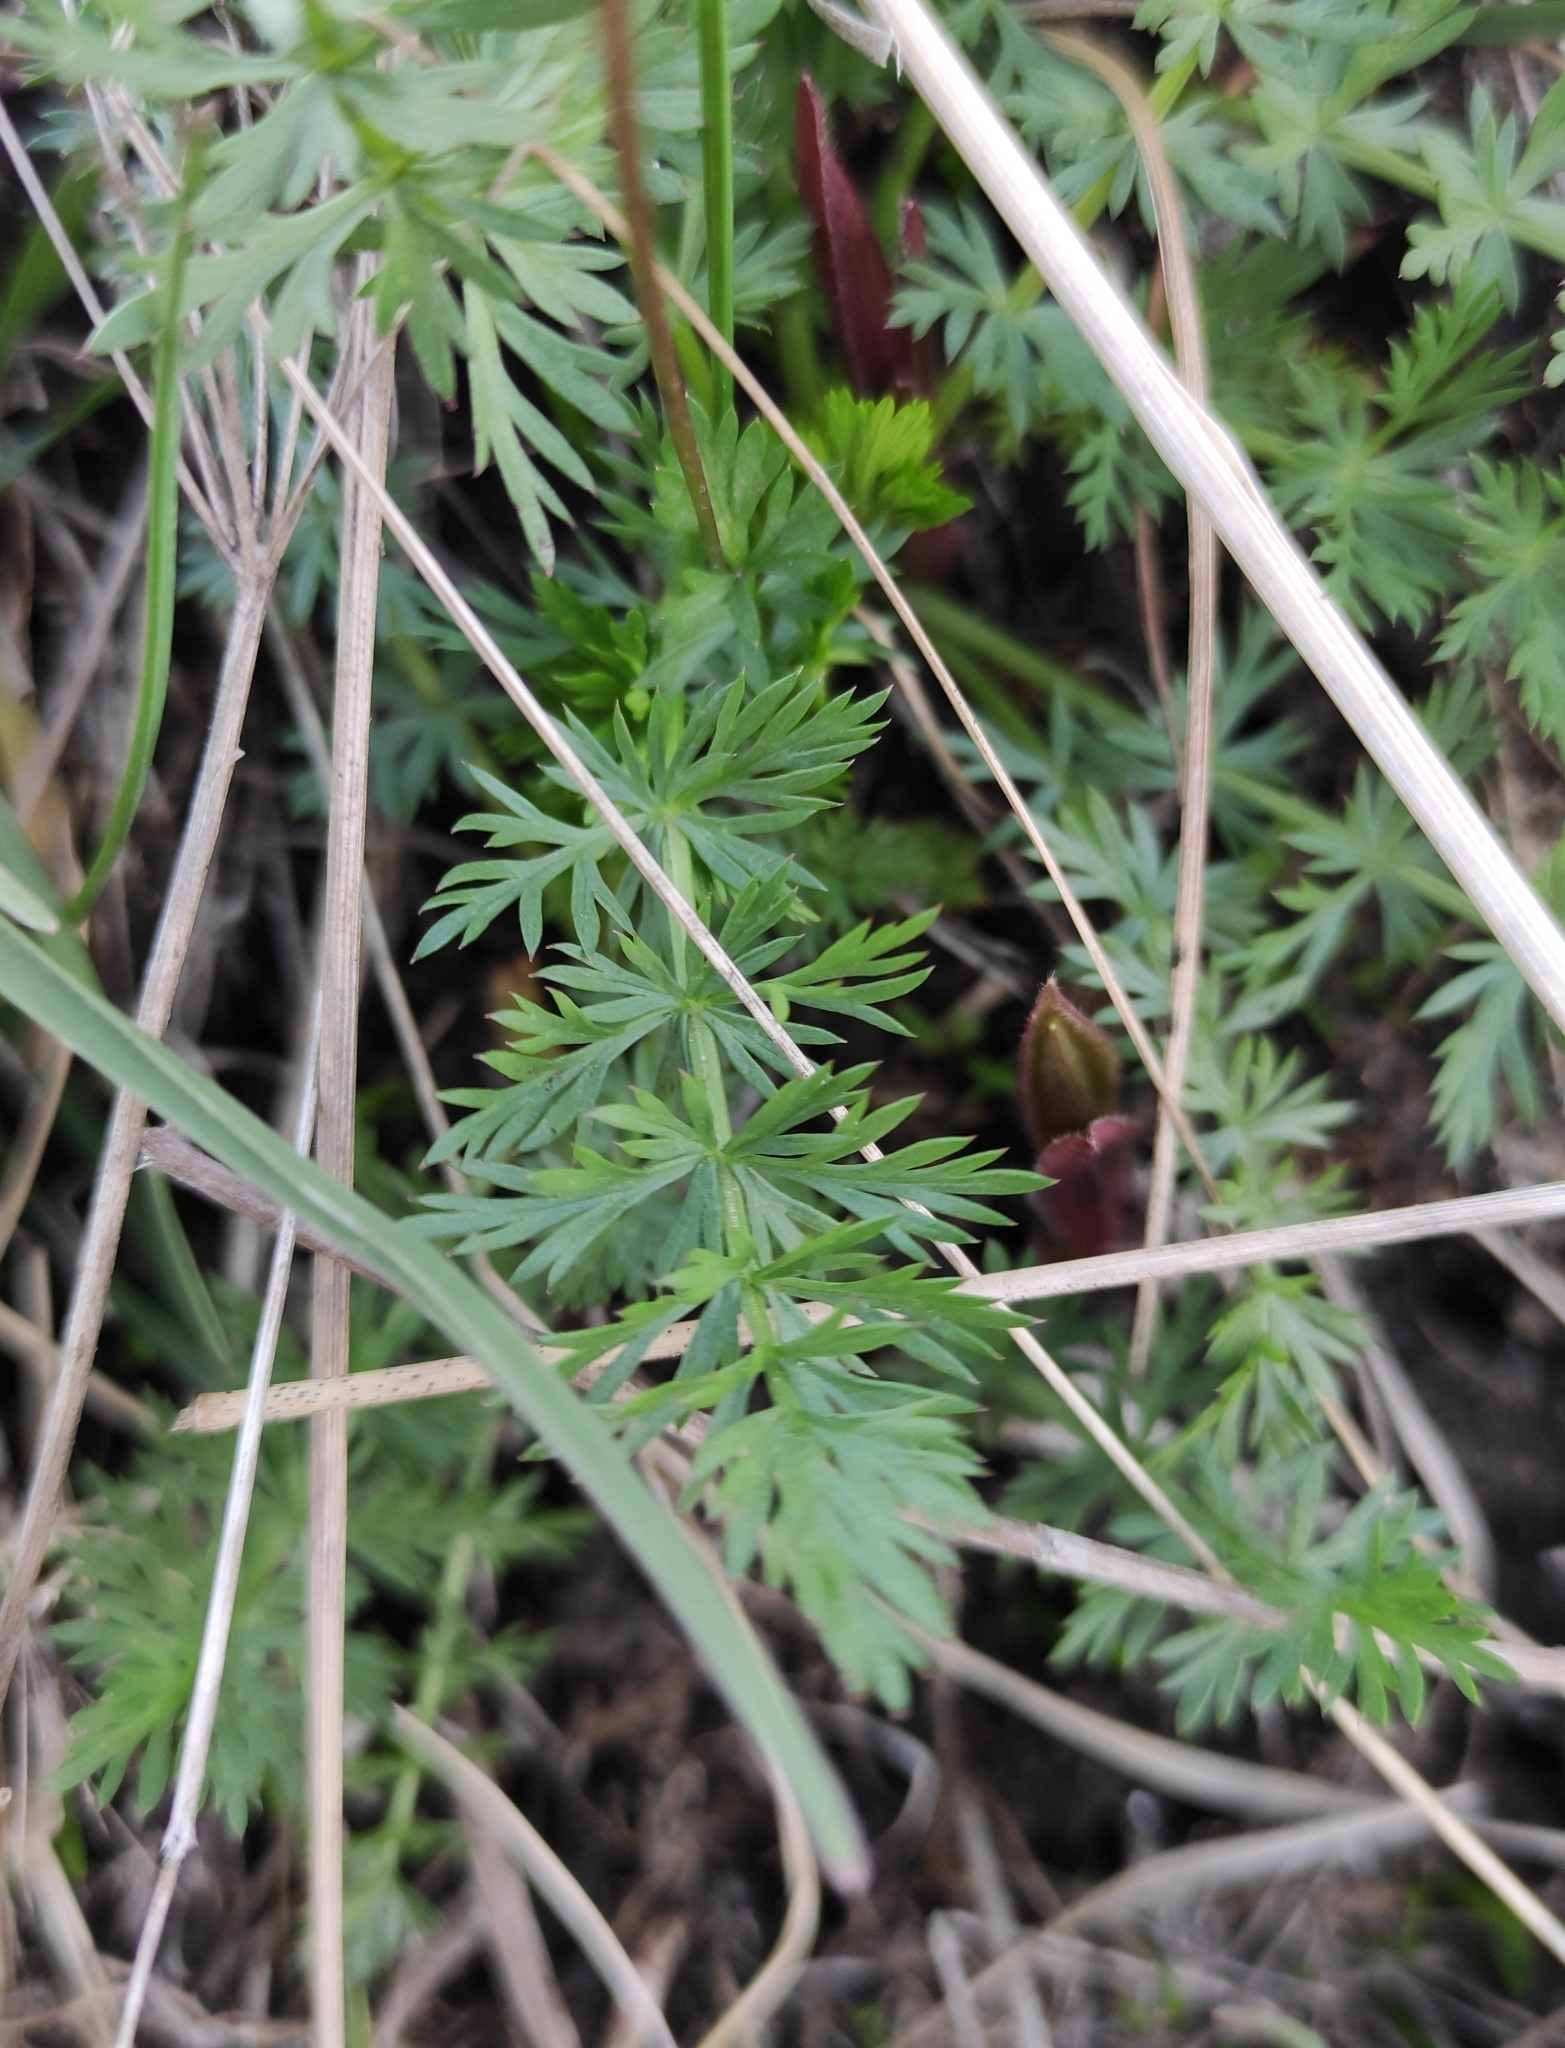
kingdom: Plantae
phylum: Tracheophyta
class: Magnoliopsida
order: Apiales
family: Apiaceae
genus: Carum
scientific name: Carum carvi
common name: Caraway
